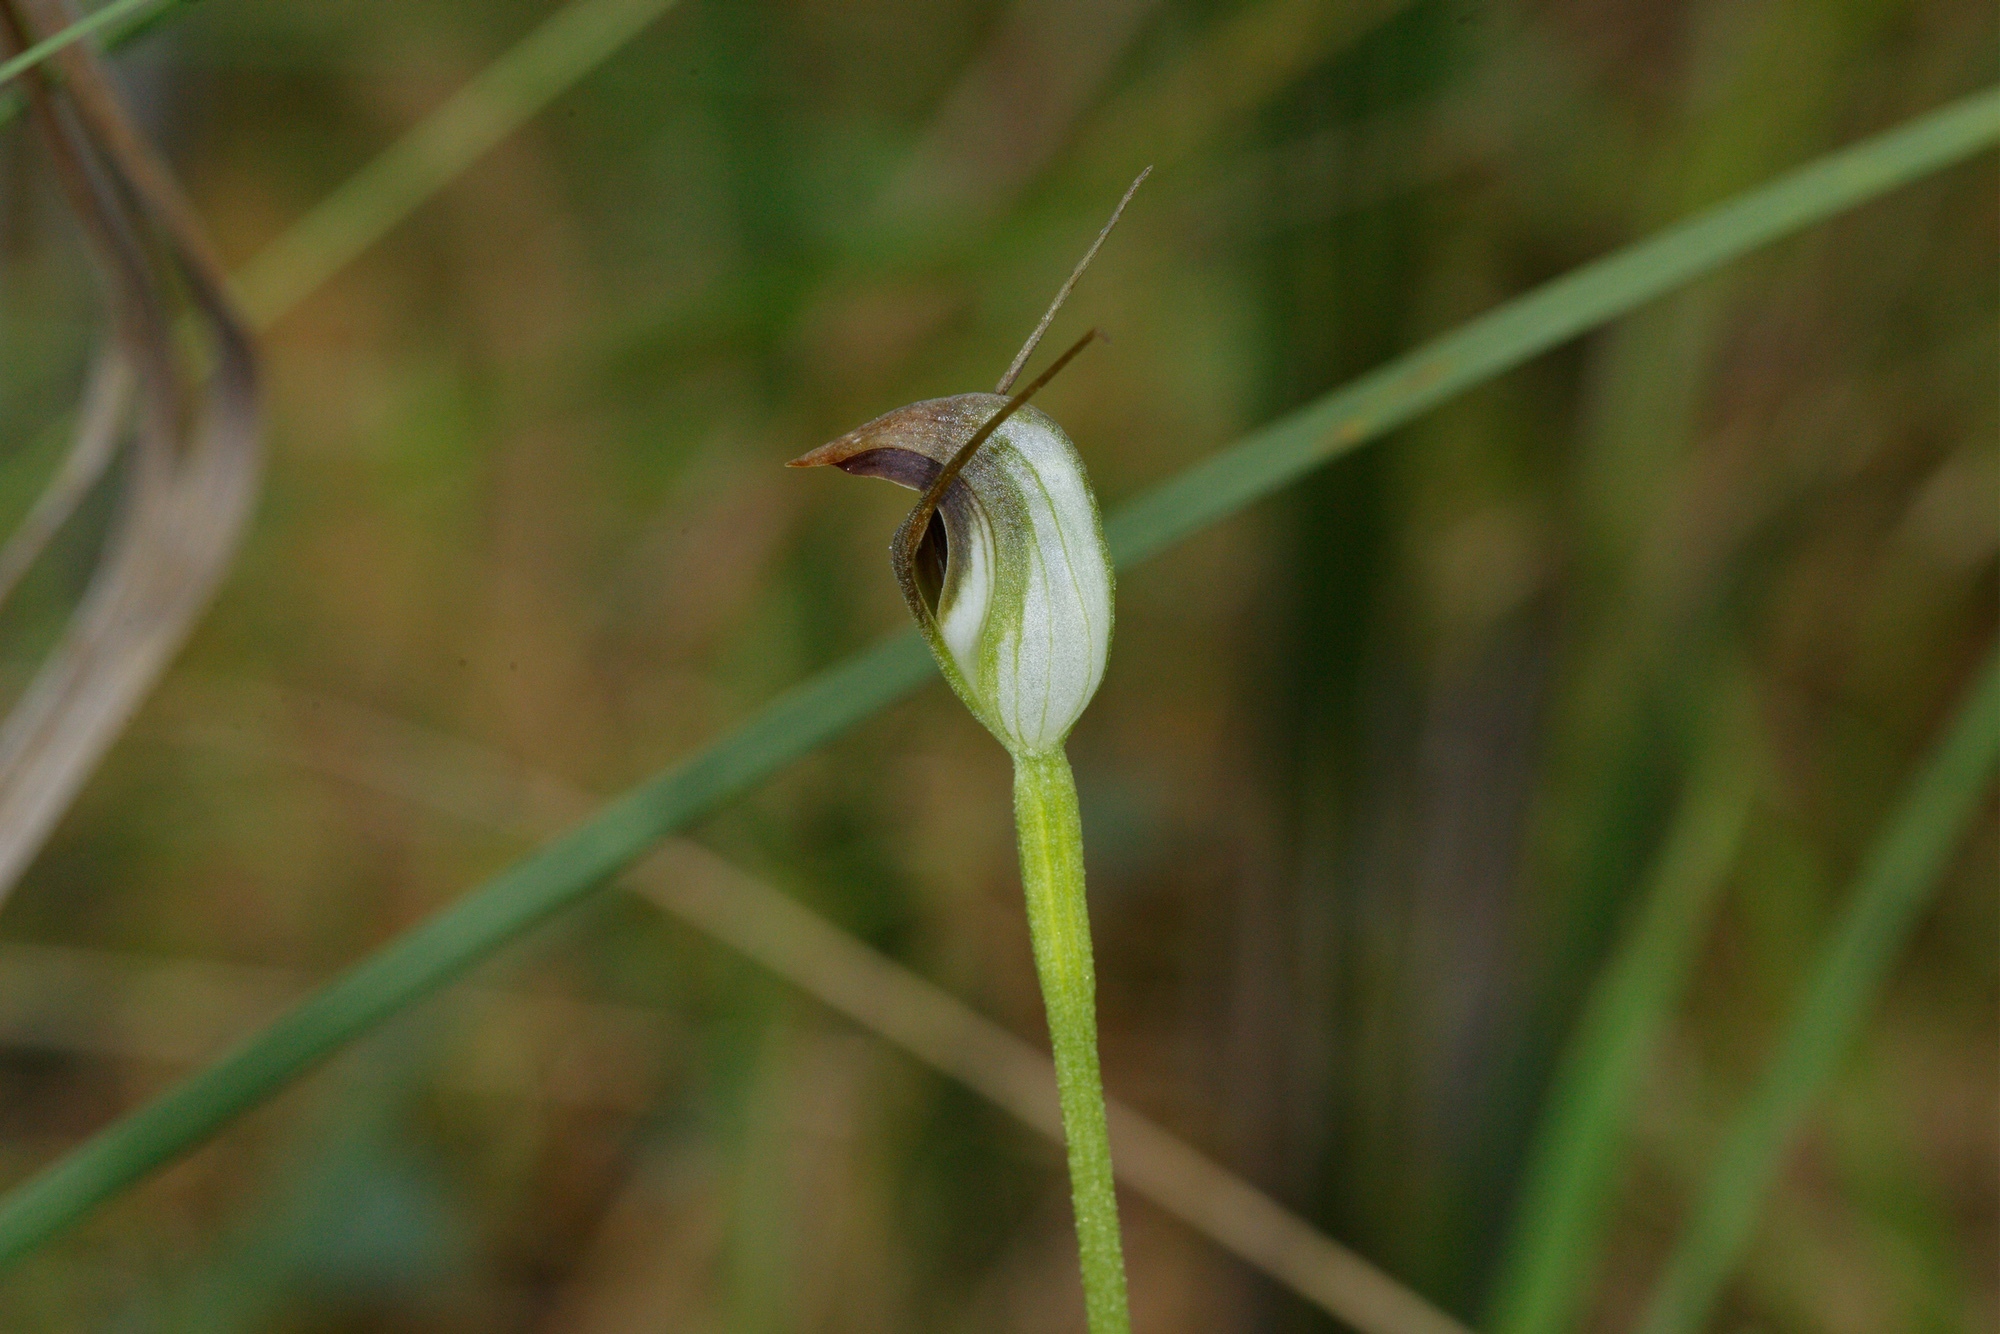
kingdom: Plantae
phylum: Tracheophyta
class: Liliopsida
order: Asparagales
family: Orchidaceae
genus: Pterostylis
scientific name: Pterostylis pedunculata
